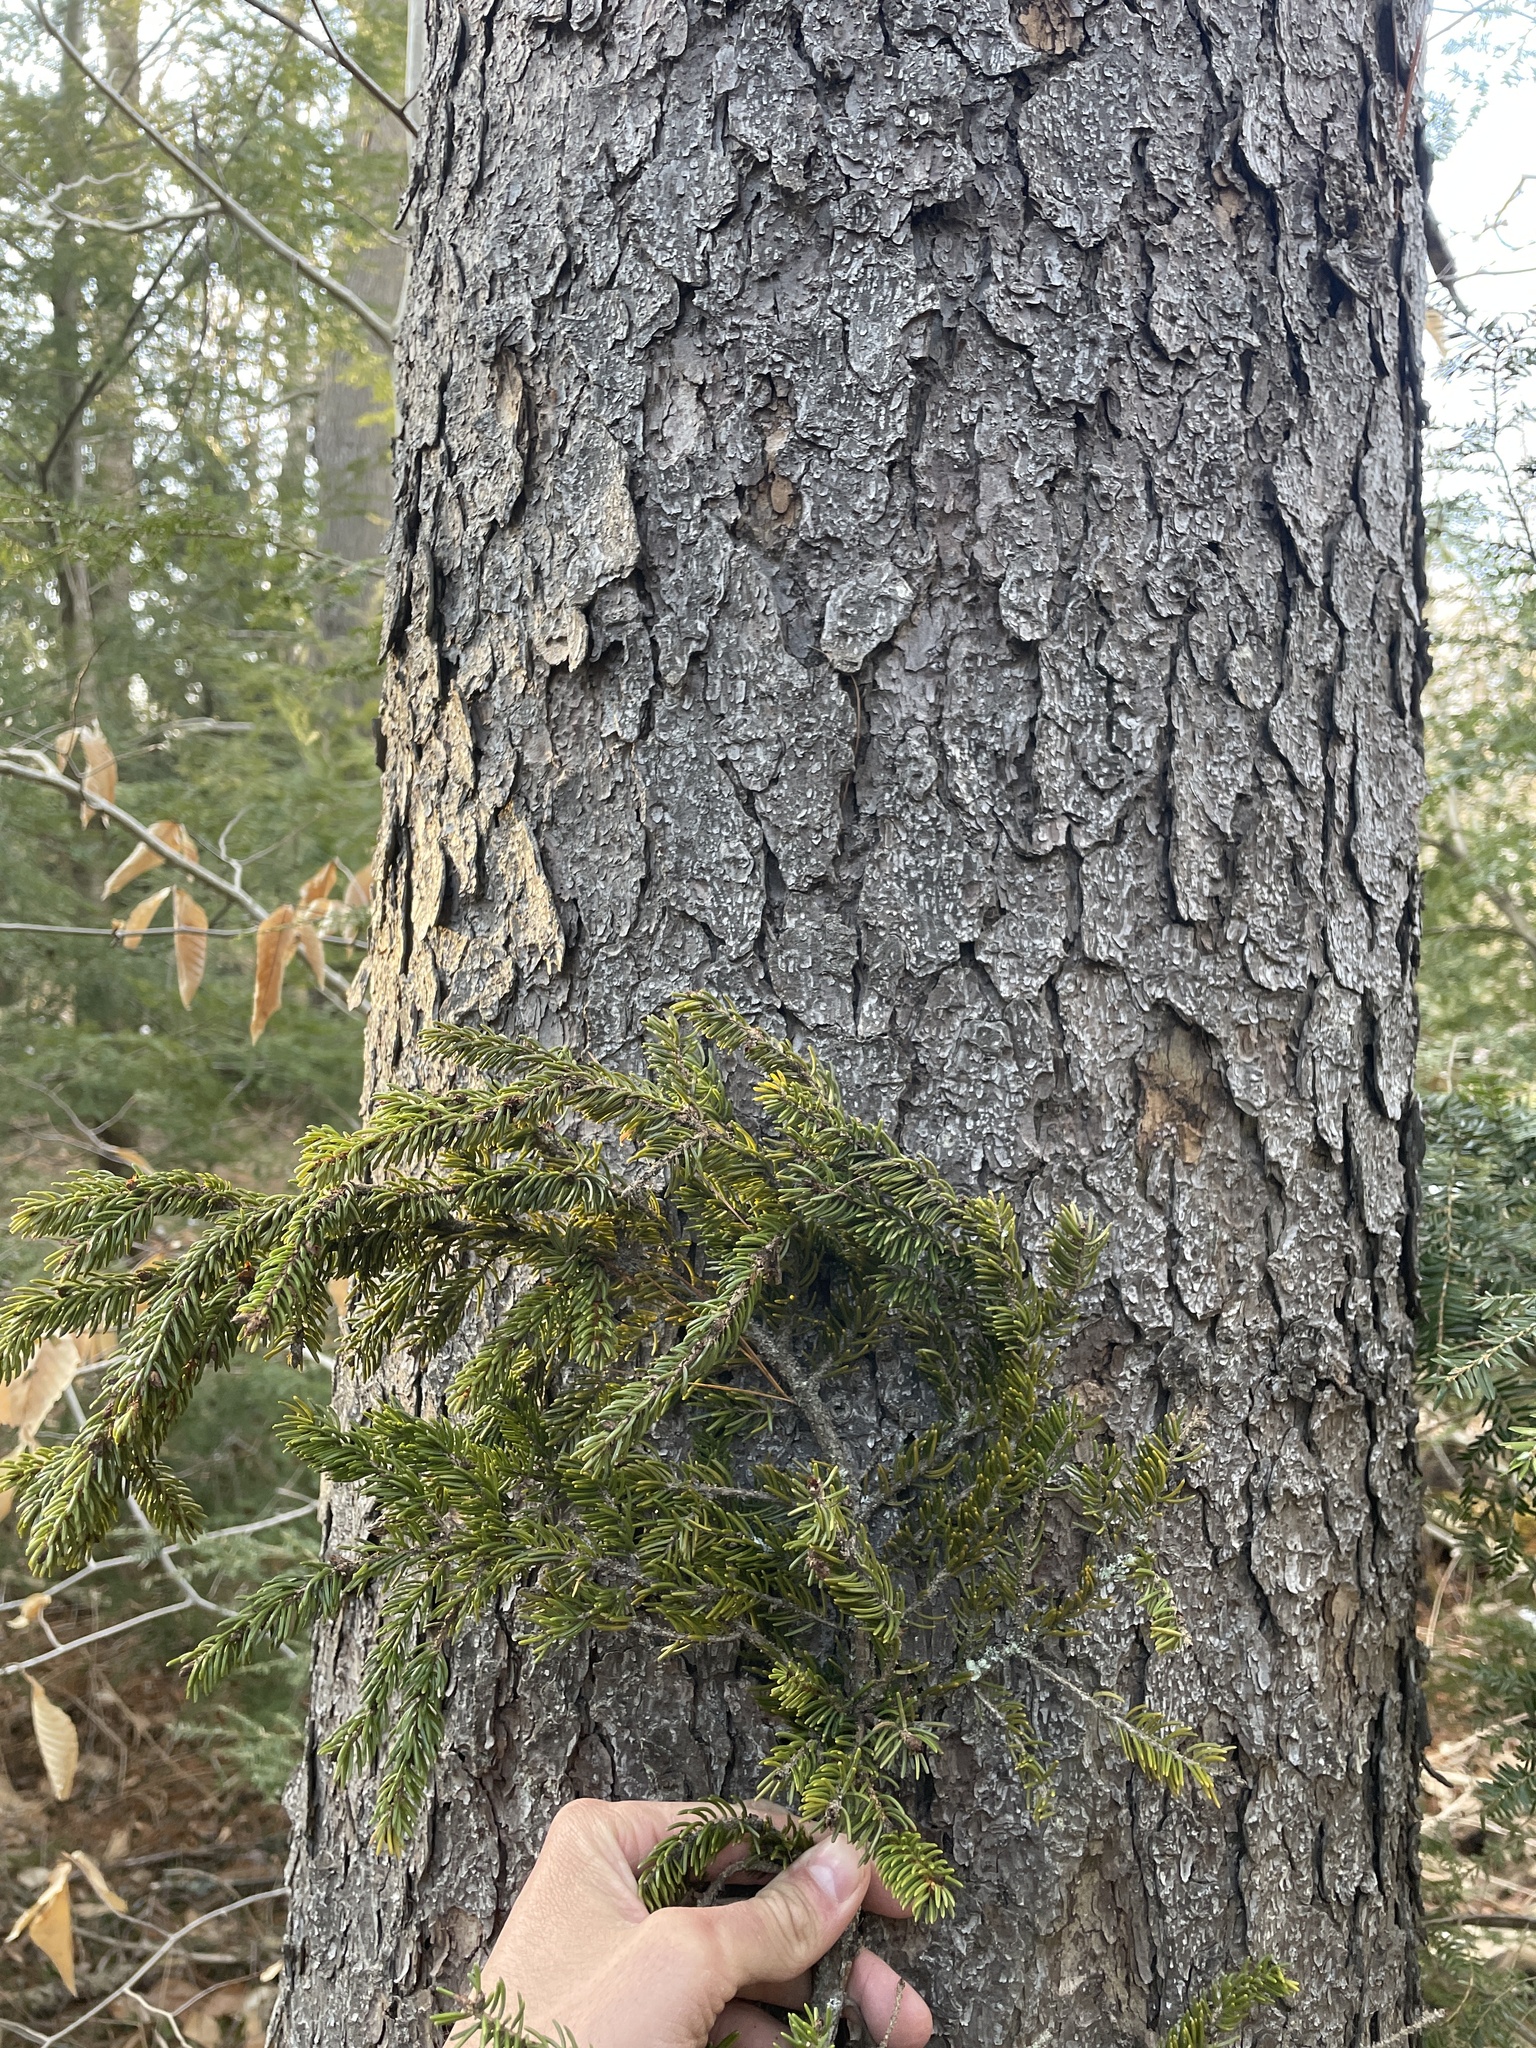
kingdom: Plantae
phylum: Tracheophyta
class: Pinopsida
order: Pinales
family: Pinaceae
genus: Picea
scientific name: Picea rubens
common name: Red spruce
